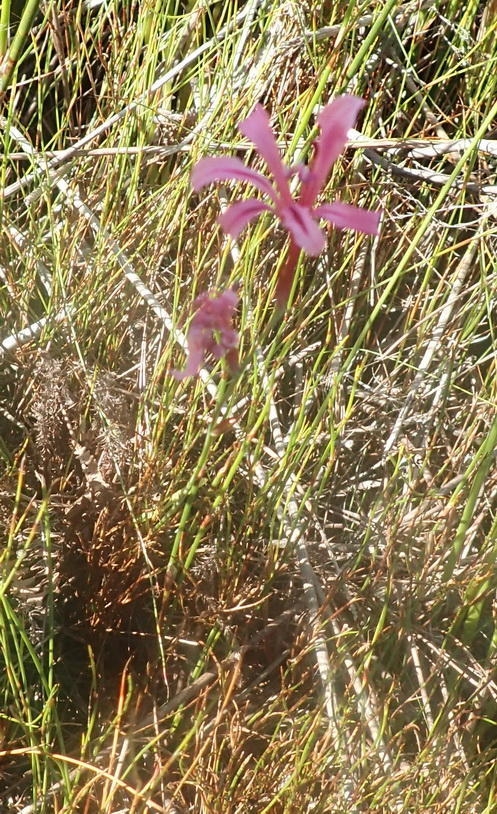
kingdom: Plantae
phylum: Tracheophyta
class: Liliopsida
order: Asparagales
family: Iridaceae
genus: Tritoniopsis
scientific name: Tritoniopsis ramosa
